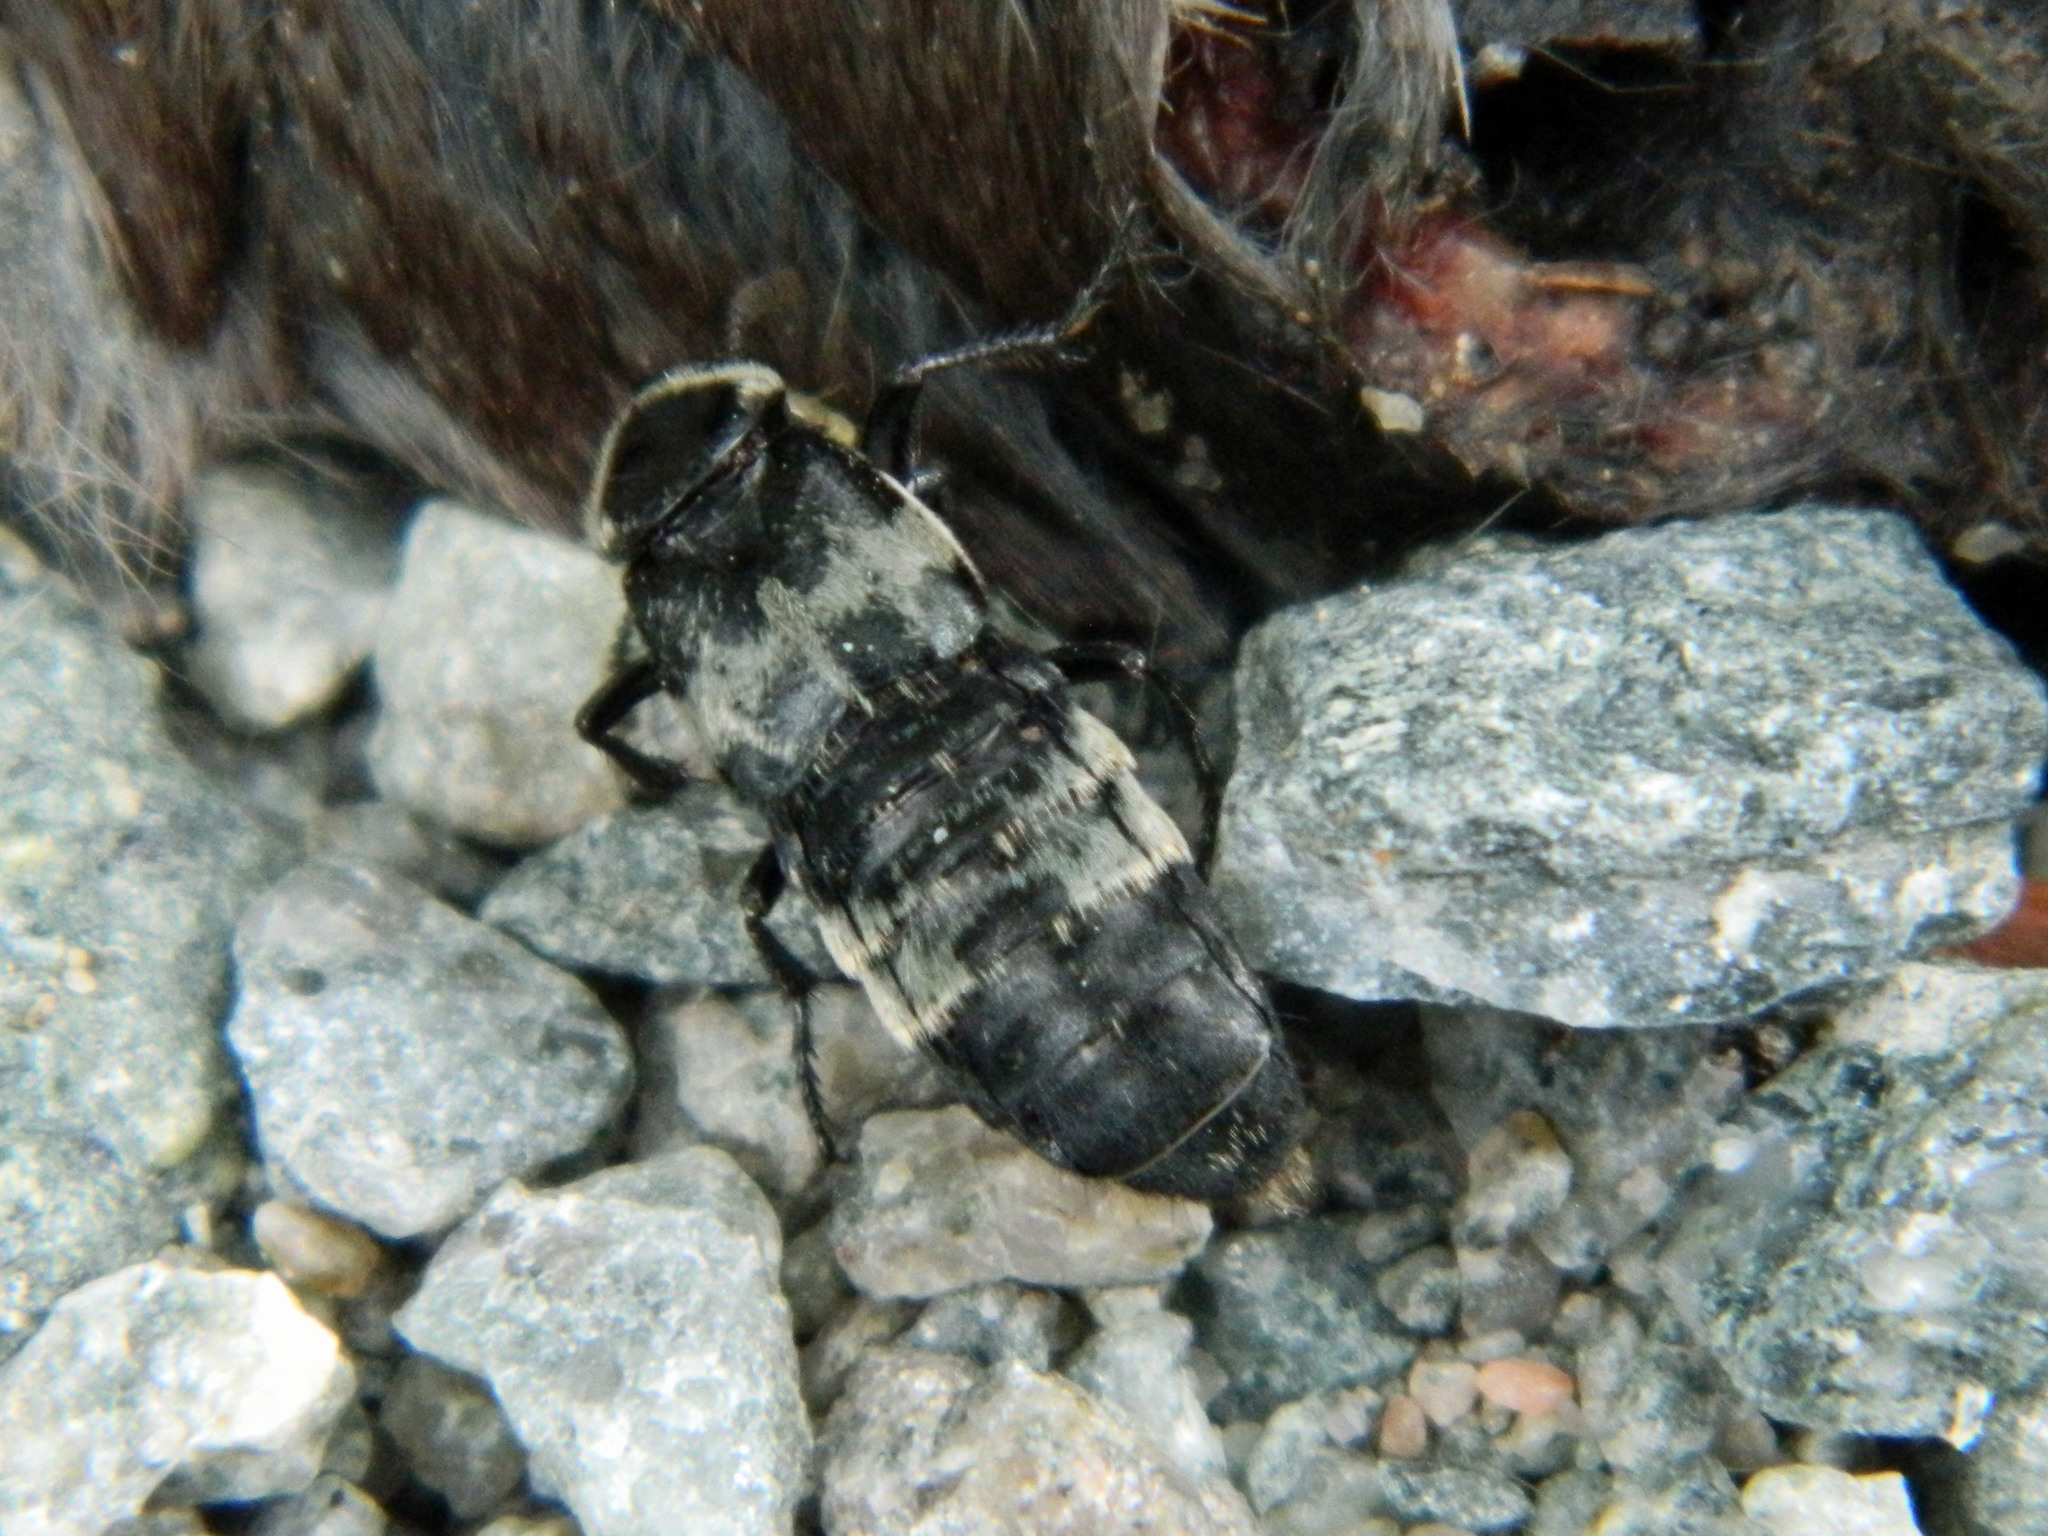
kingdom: Animalia
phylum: Arthropoda
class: Insecta
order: Coleoptera
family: Staphylinidae
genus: Creophilus
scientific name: Creophilus maxillosus
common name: Hairy rove beetle
